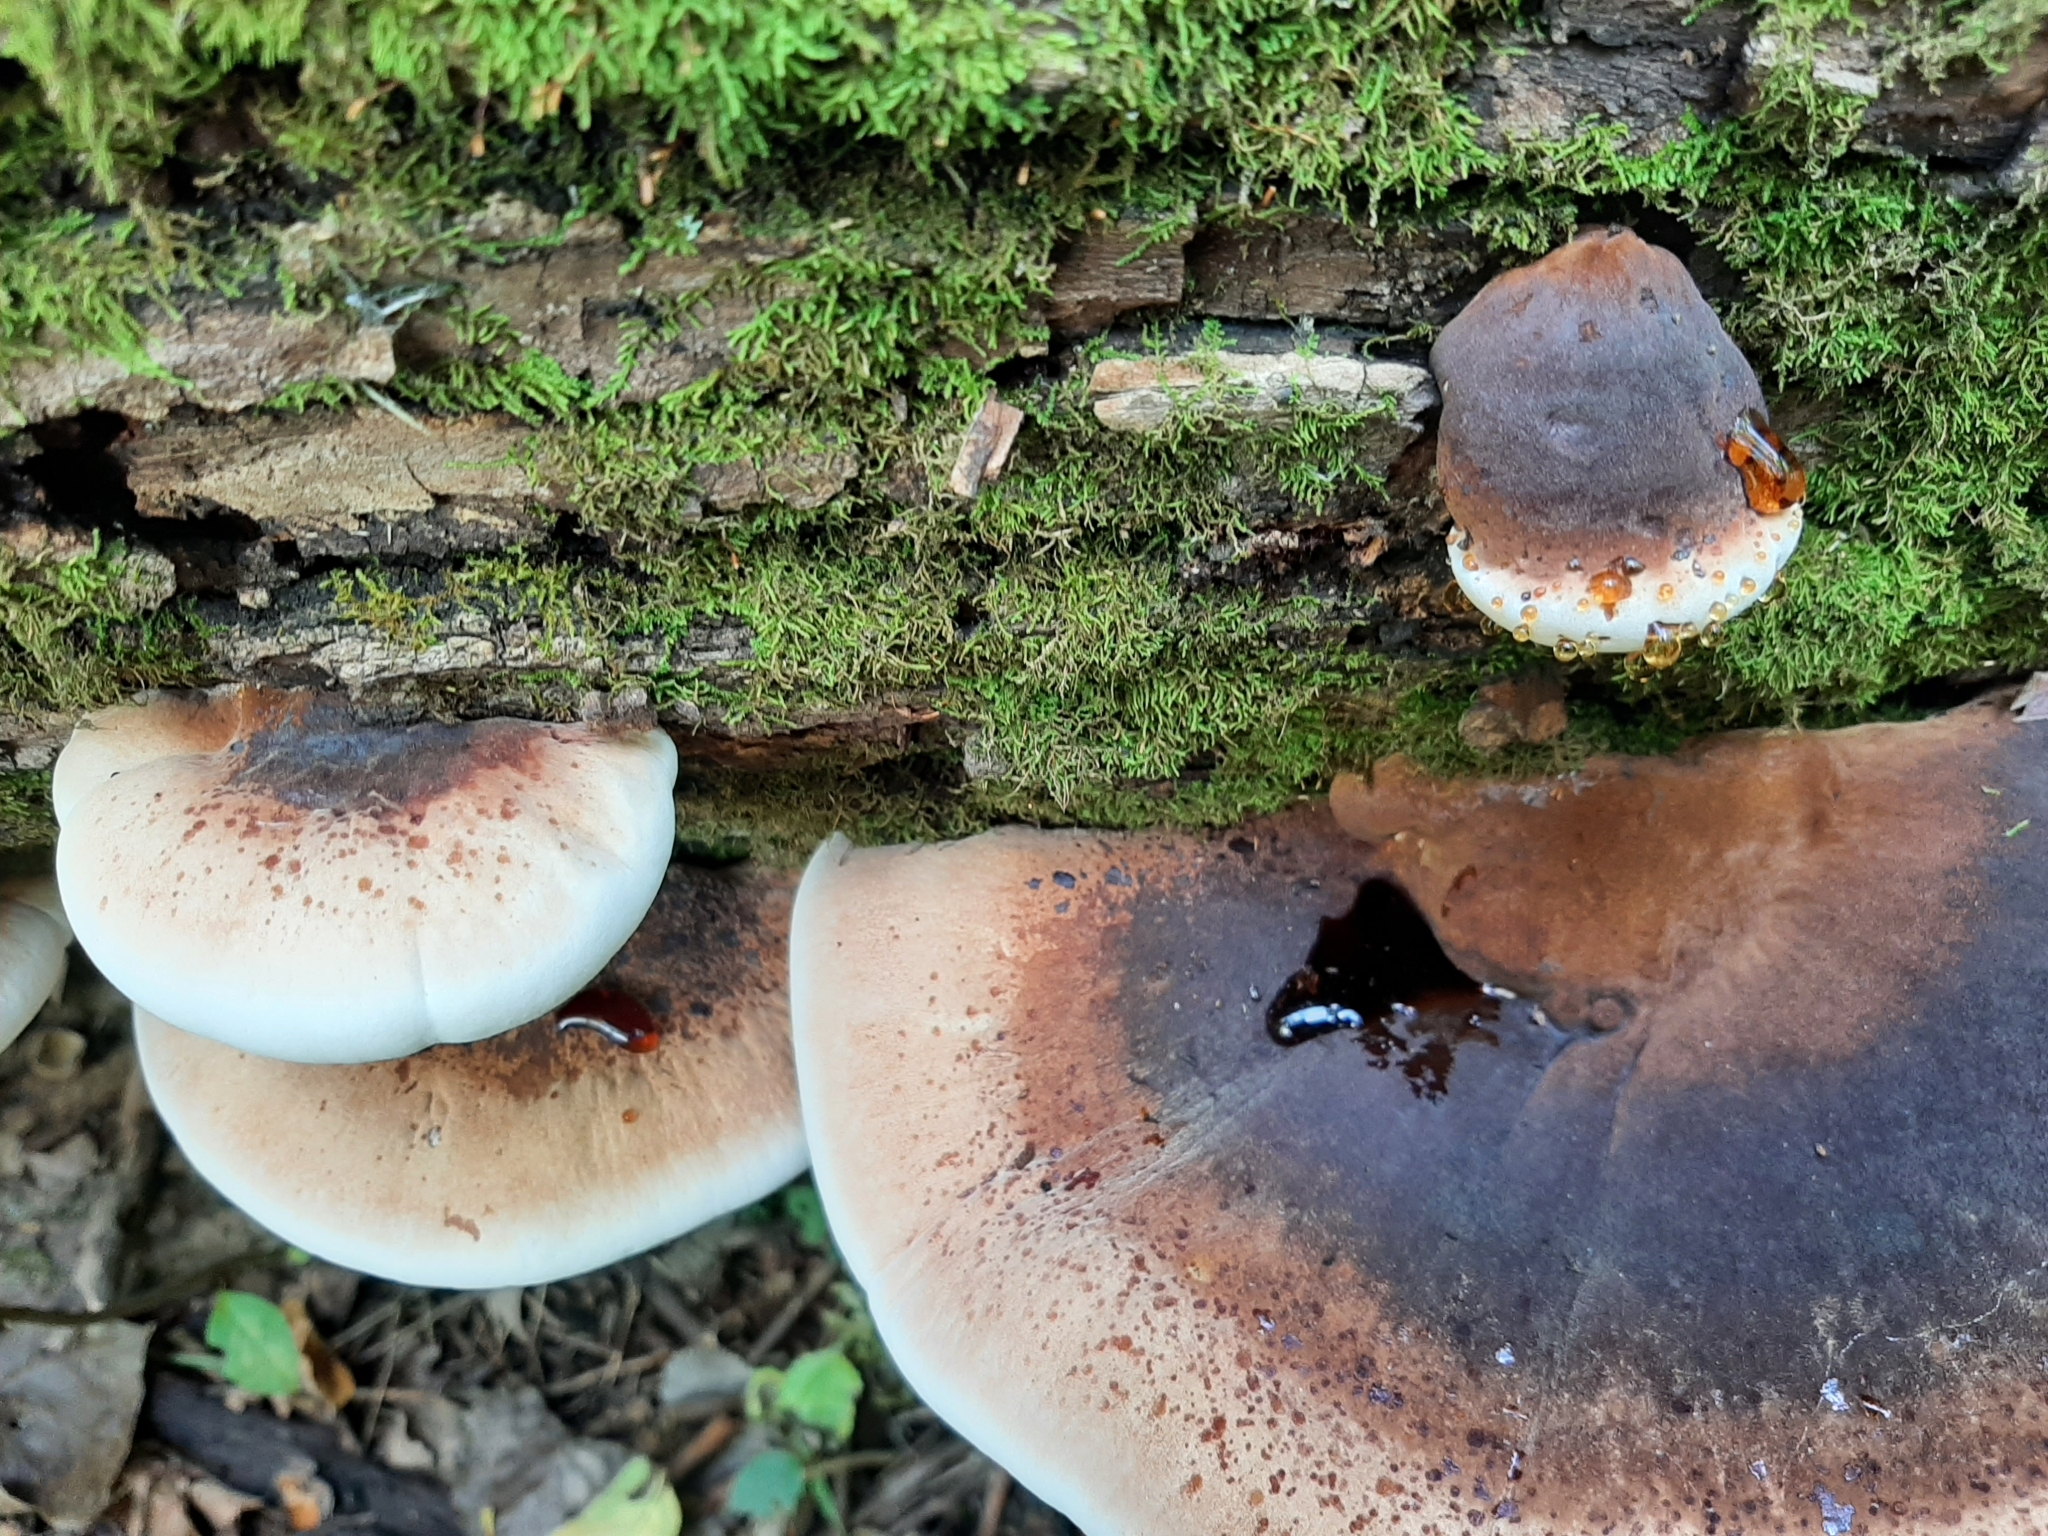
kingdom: Fungi
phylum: Basidiomycota
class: Agaricomycetes
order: Polyporales
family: Ischnodermataceae
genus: Ischnoderma
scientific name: Ischnoderma resinosum
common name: Resinous polypore
